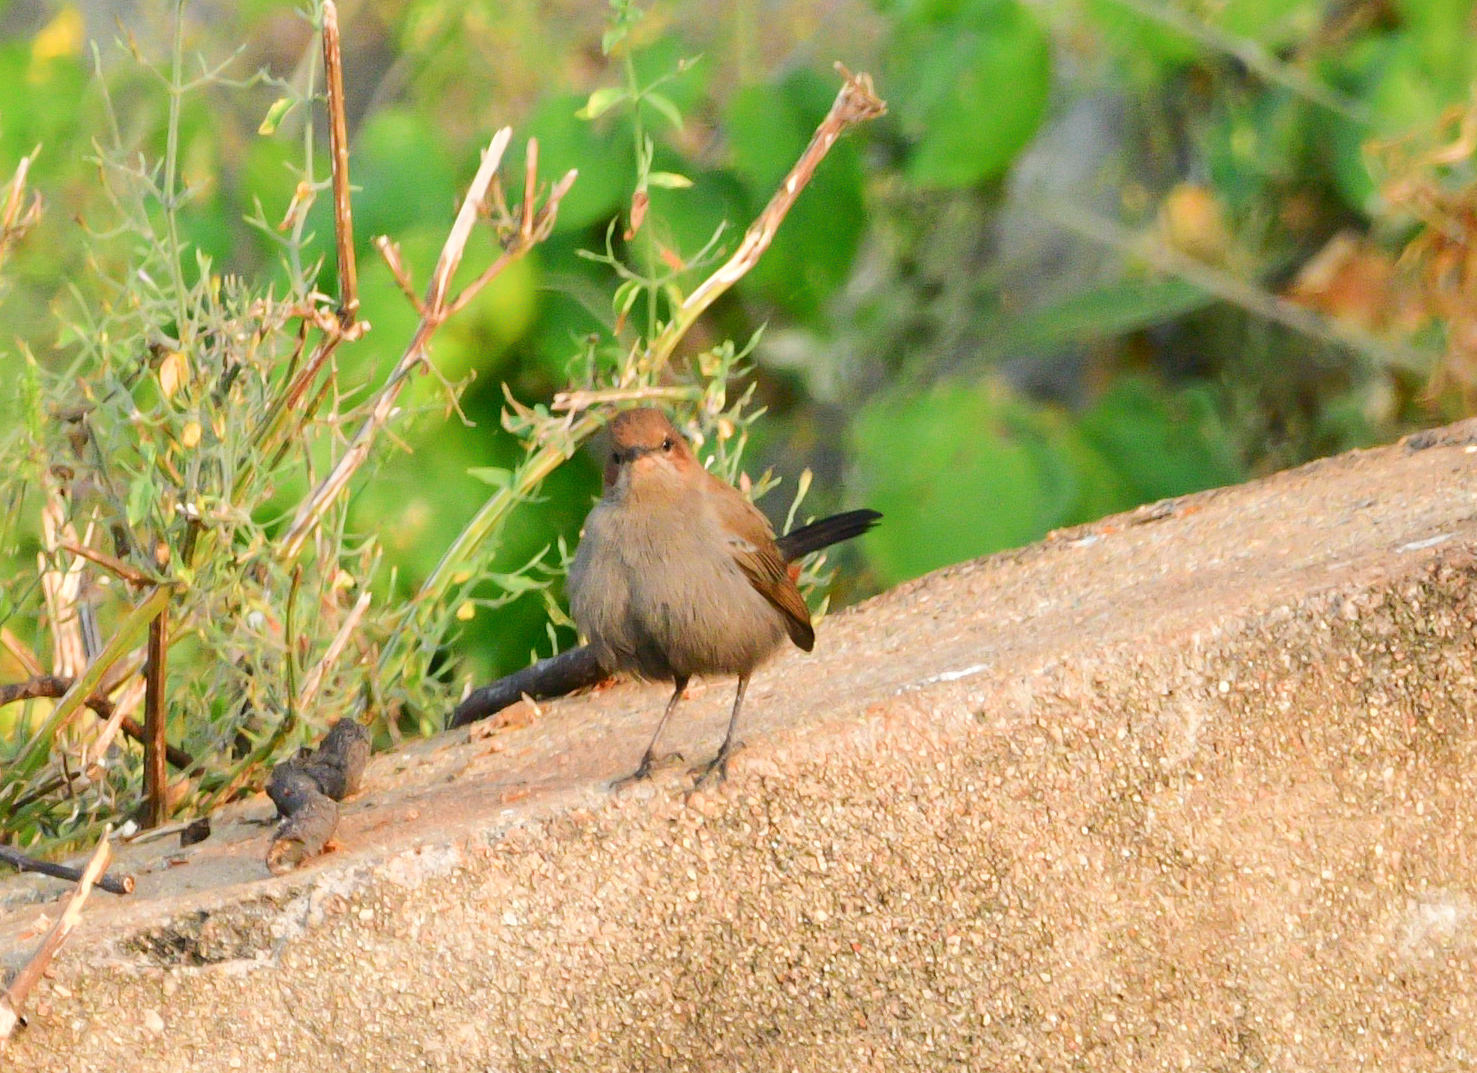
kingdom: Animalia
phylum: Chordata
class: Aves
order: Passeriformes
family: Muscicapidae
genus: Saxicoloides
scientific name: Saxicoloides fulicatus
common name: Indian robin
